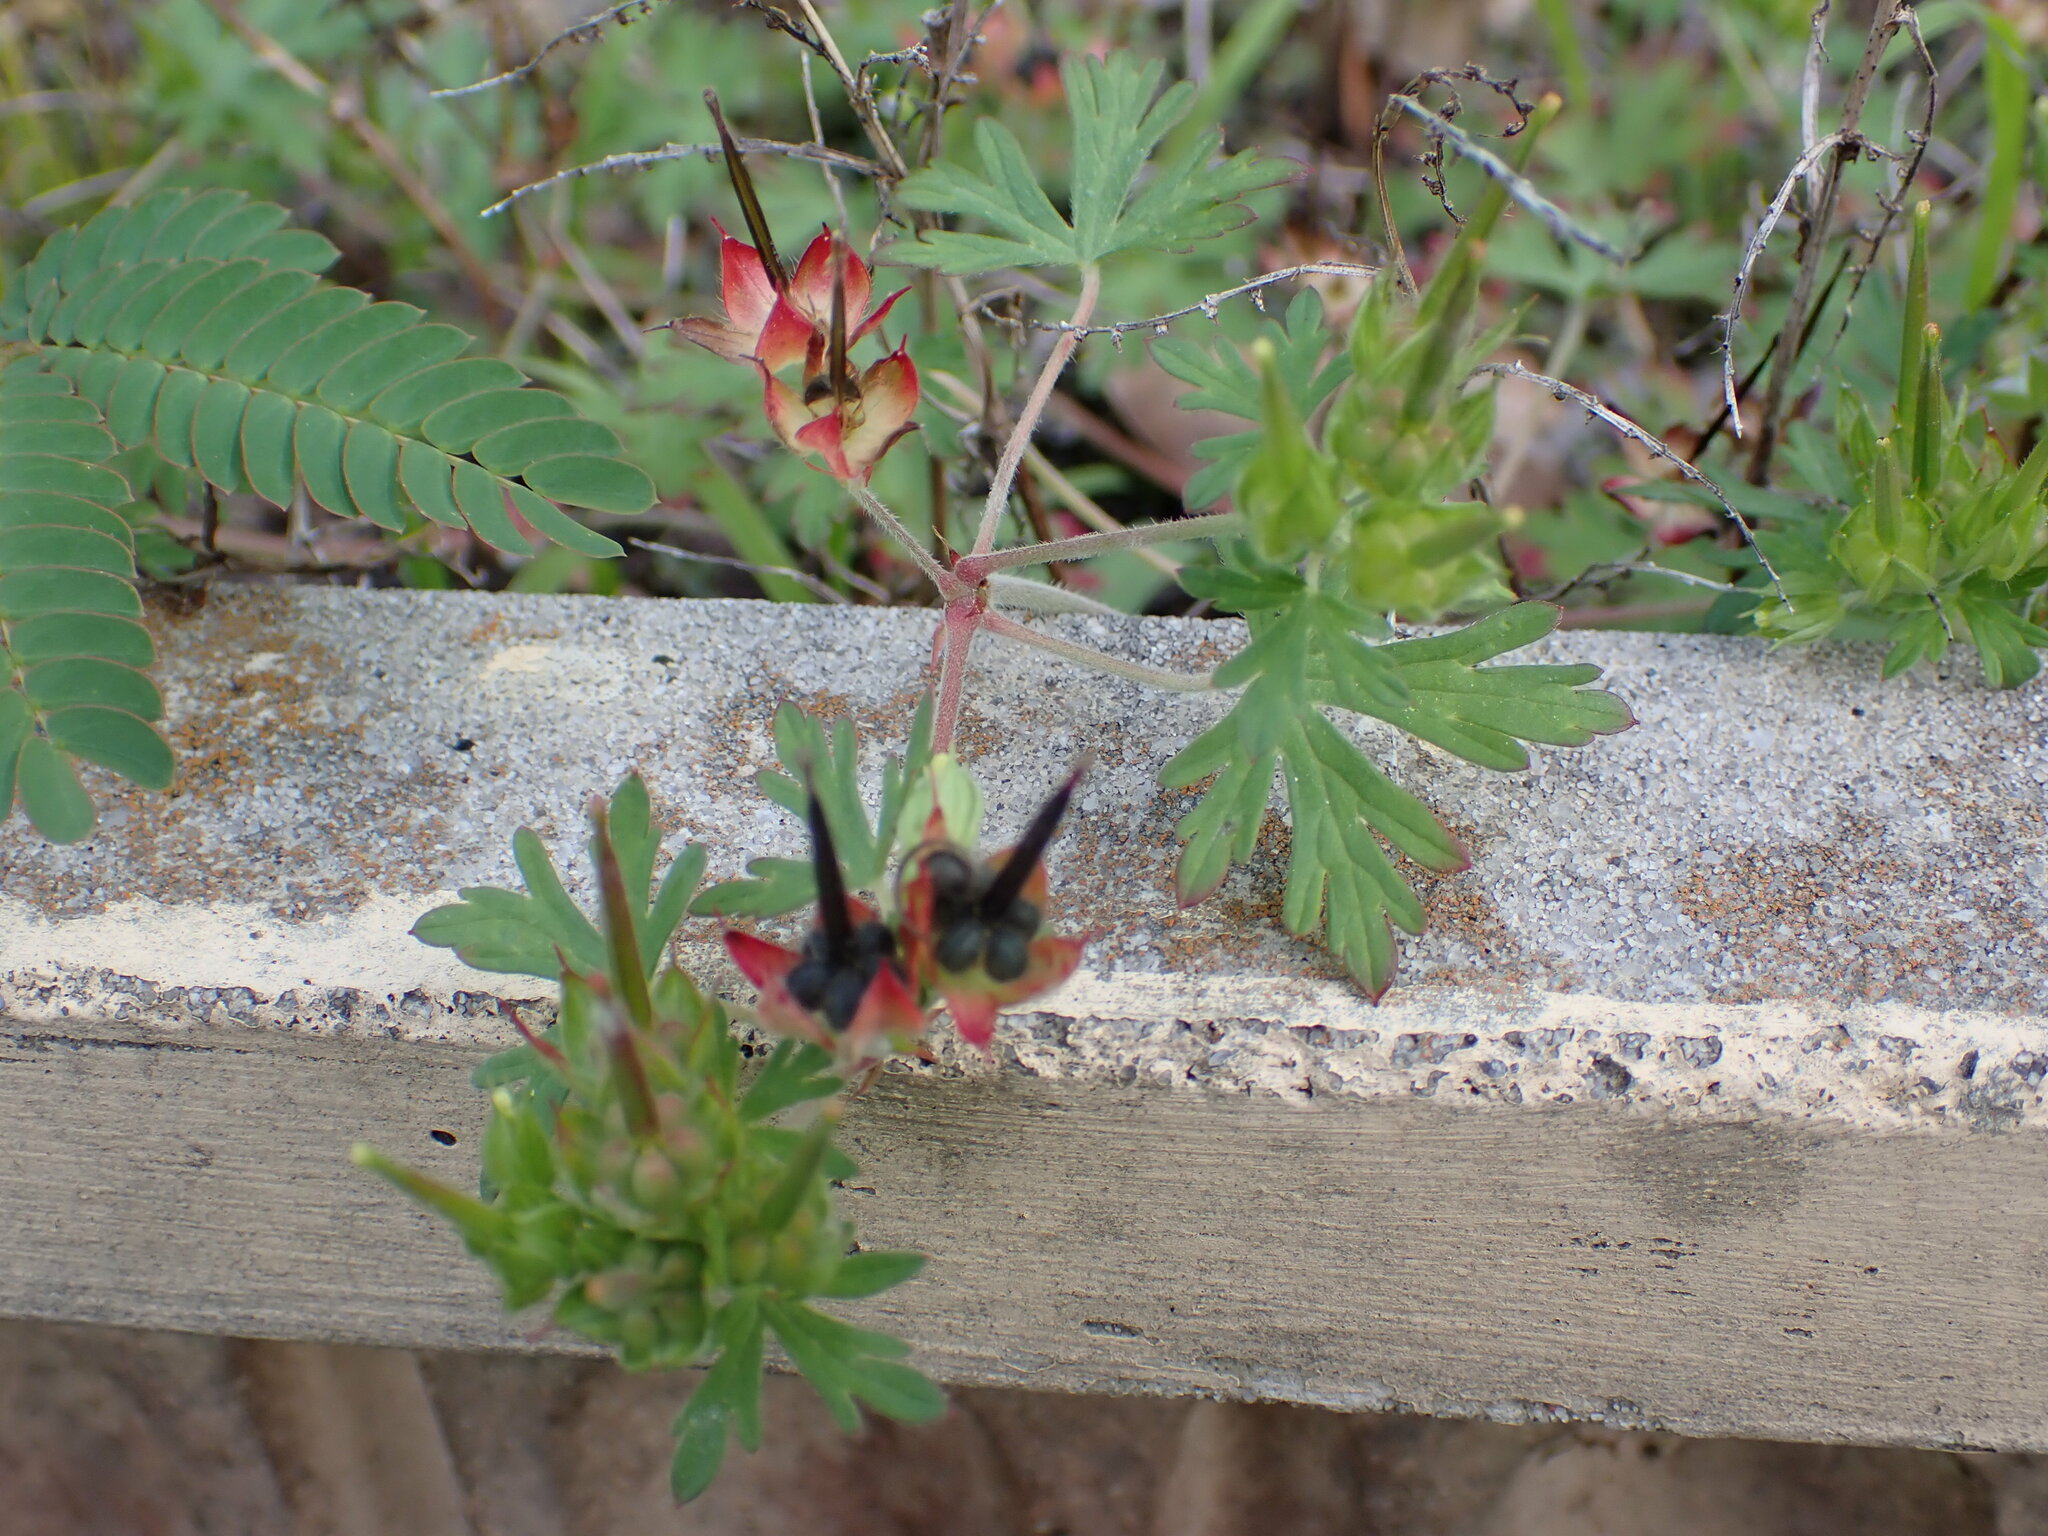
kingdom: Plantae
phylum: Tracheophyta
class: Magnoliopsida
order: Geraniales
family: Geraniaceae
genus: Geranium
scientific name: Geranium carolinianum
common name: Carolina crane's-bill
